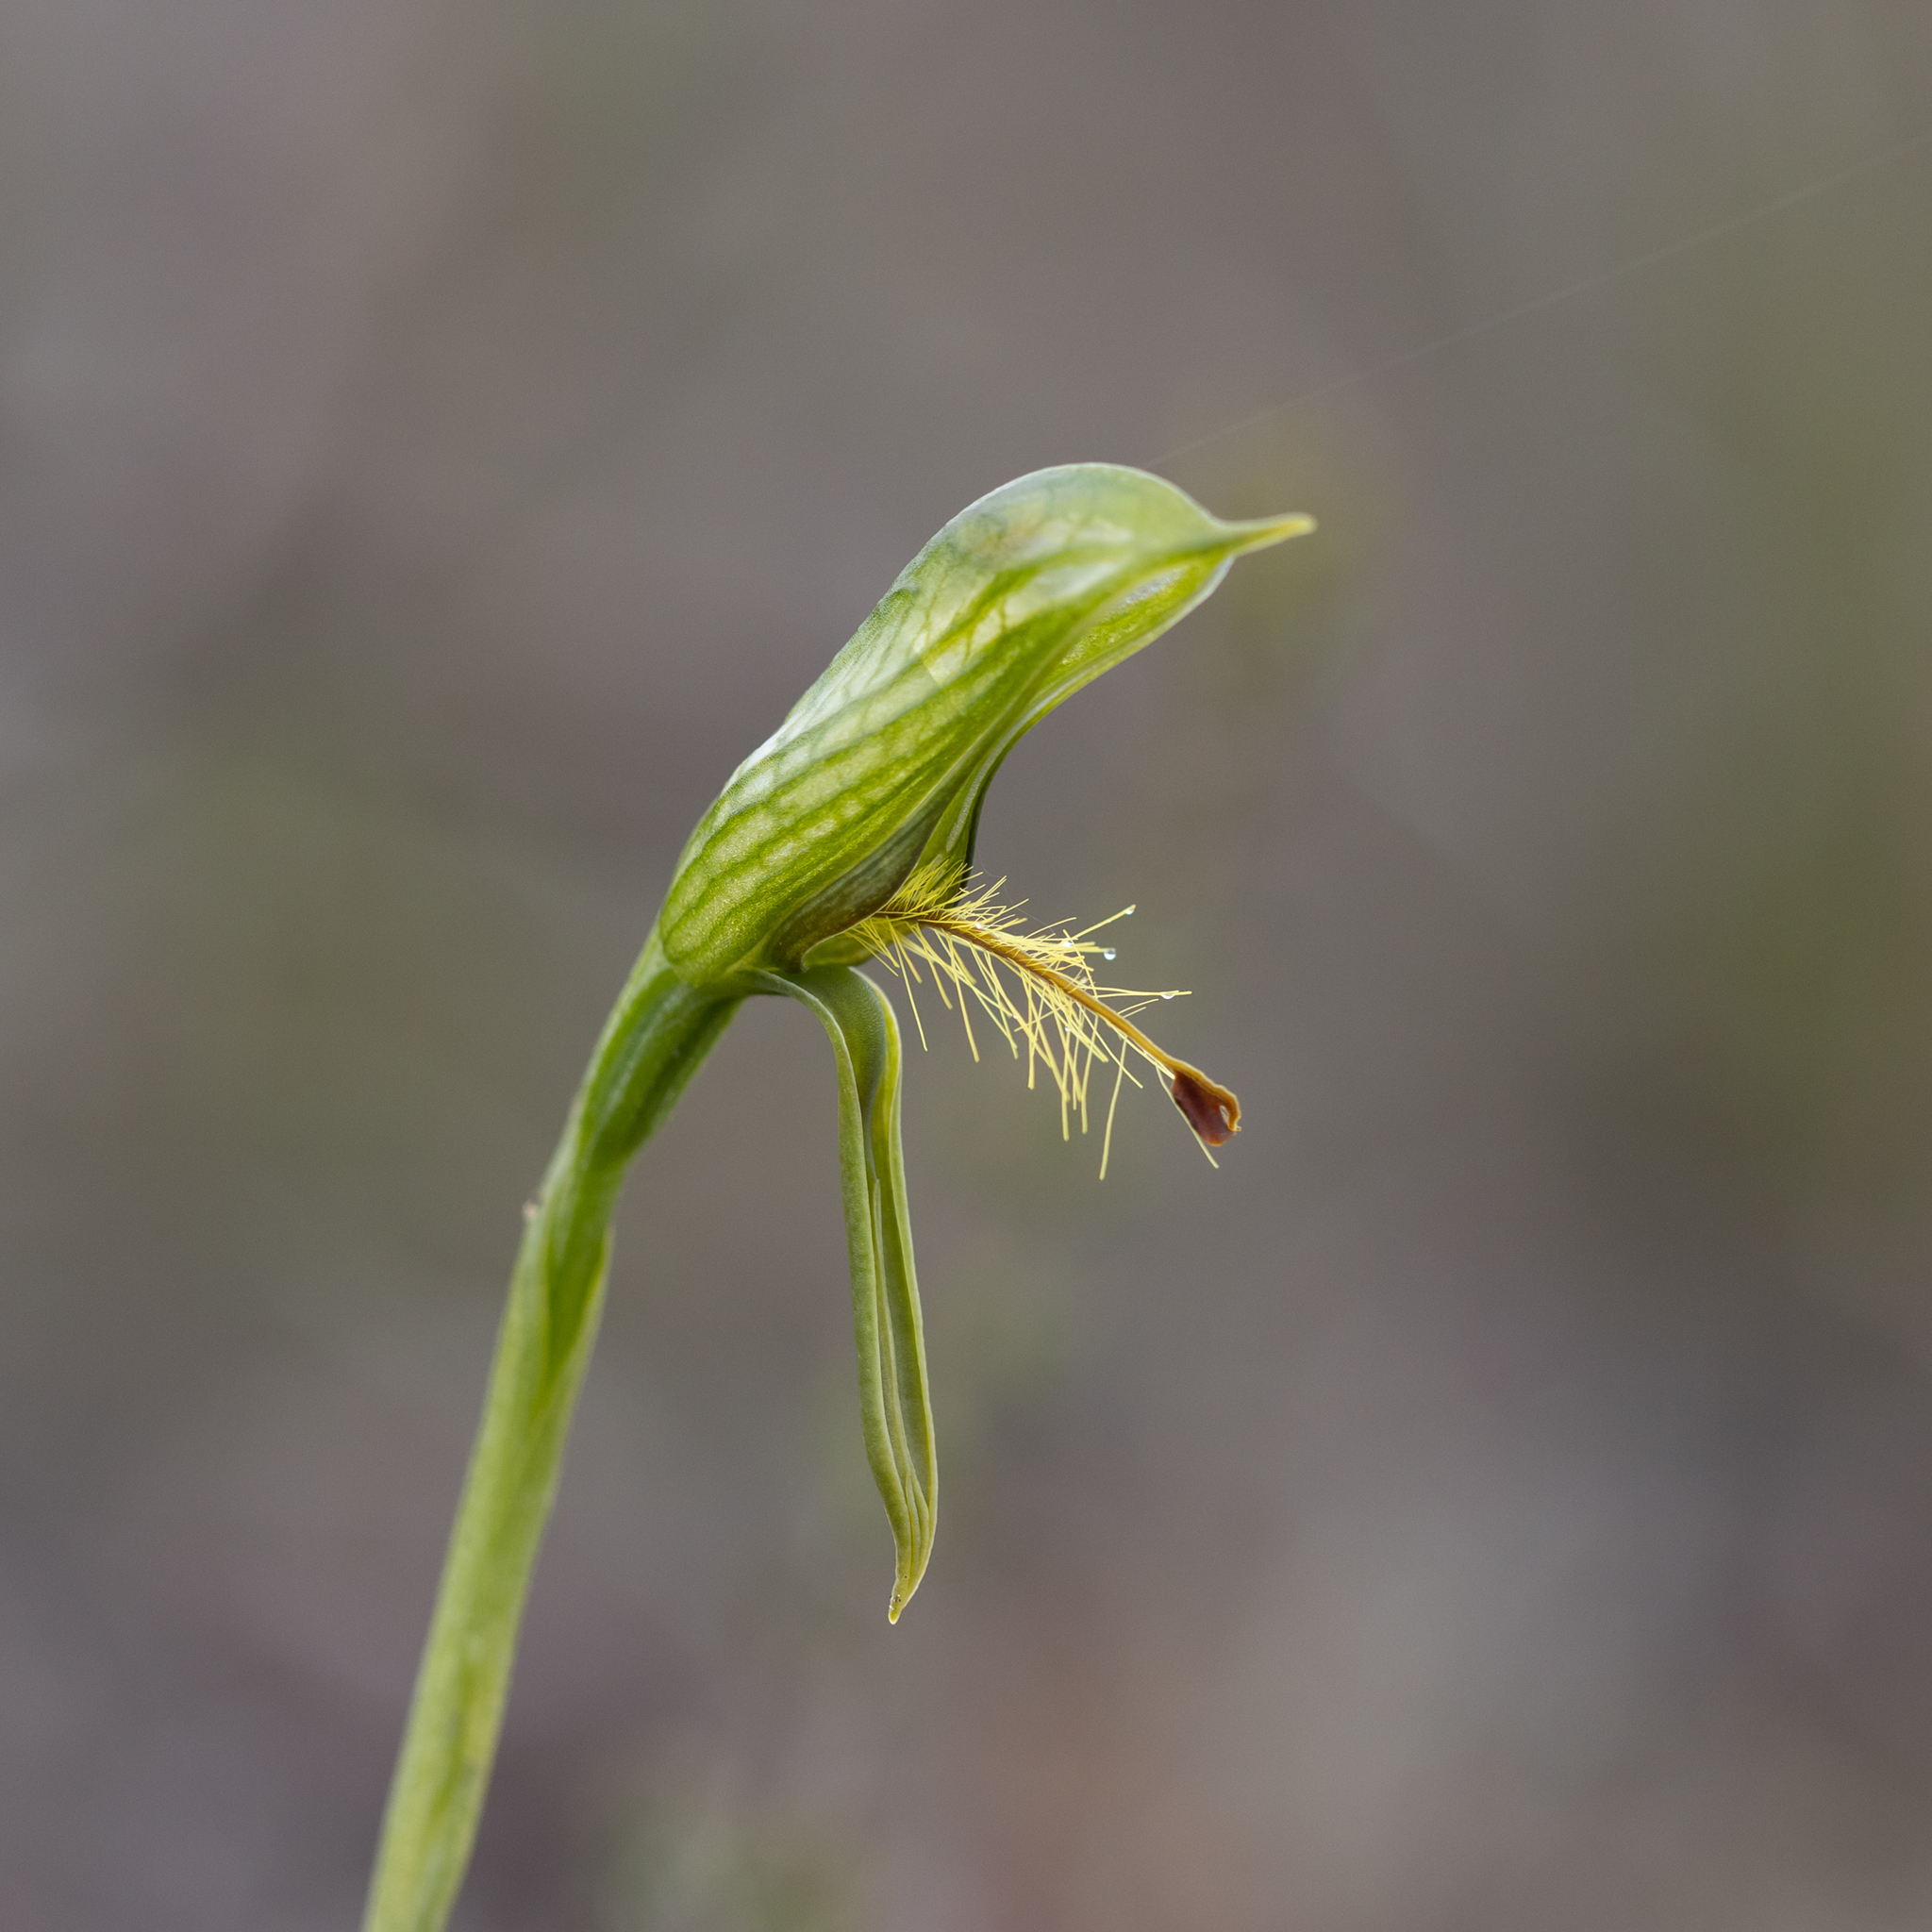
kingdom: Plantae
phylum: Tracheophyta
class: Liliopsida
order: Asparagales
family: Orchidaceae
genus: Pterostylis
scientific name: Pterostylis plumosa
